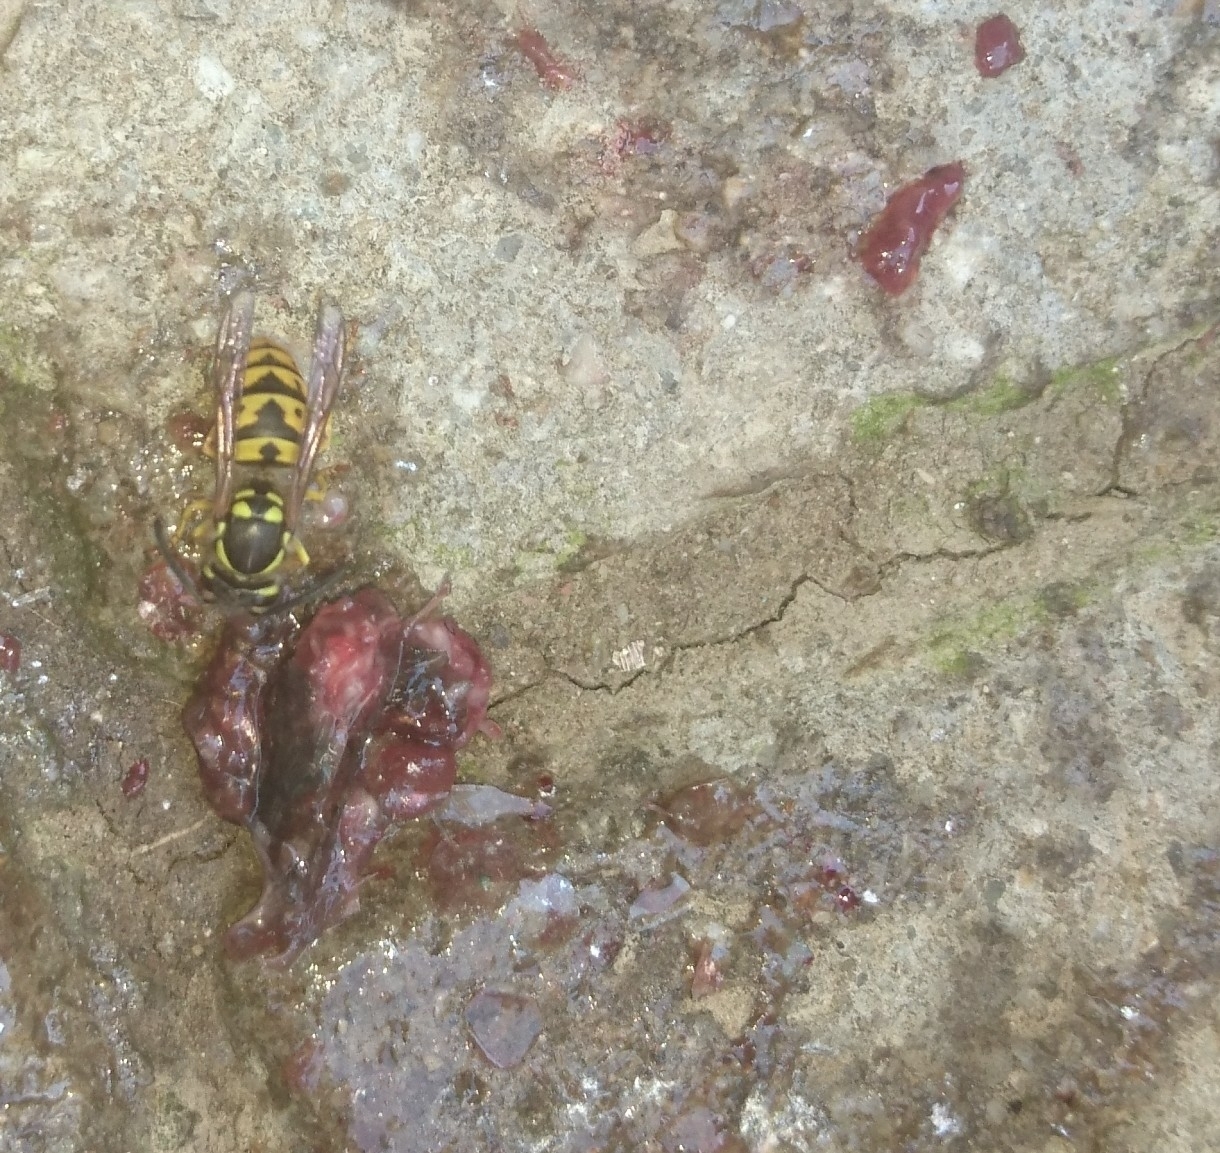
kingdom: Animalia
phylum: Arthropoda
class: Insecta
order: Hymenoptera
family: Vespidae
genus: Vespula
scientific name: Vespula germanica
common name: German wasp
